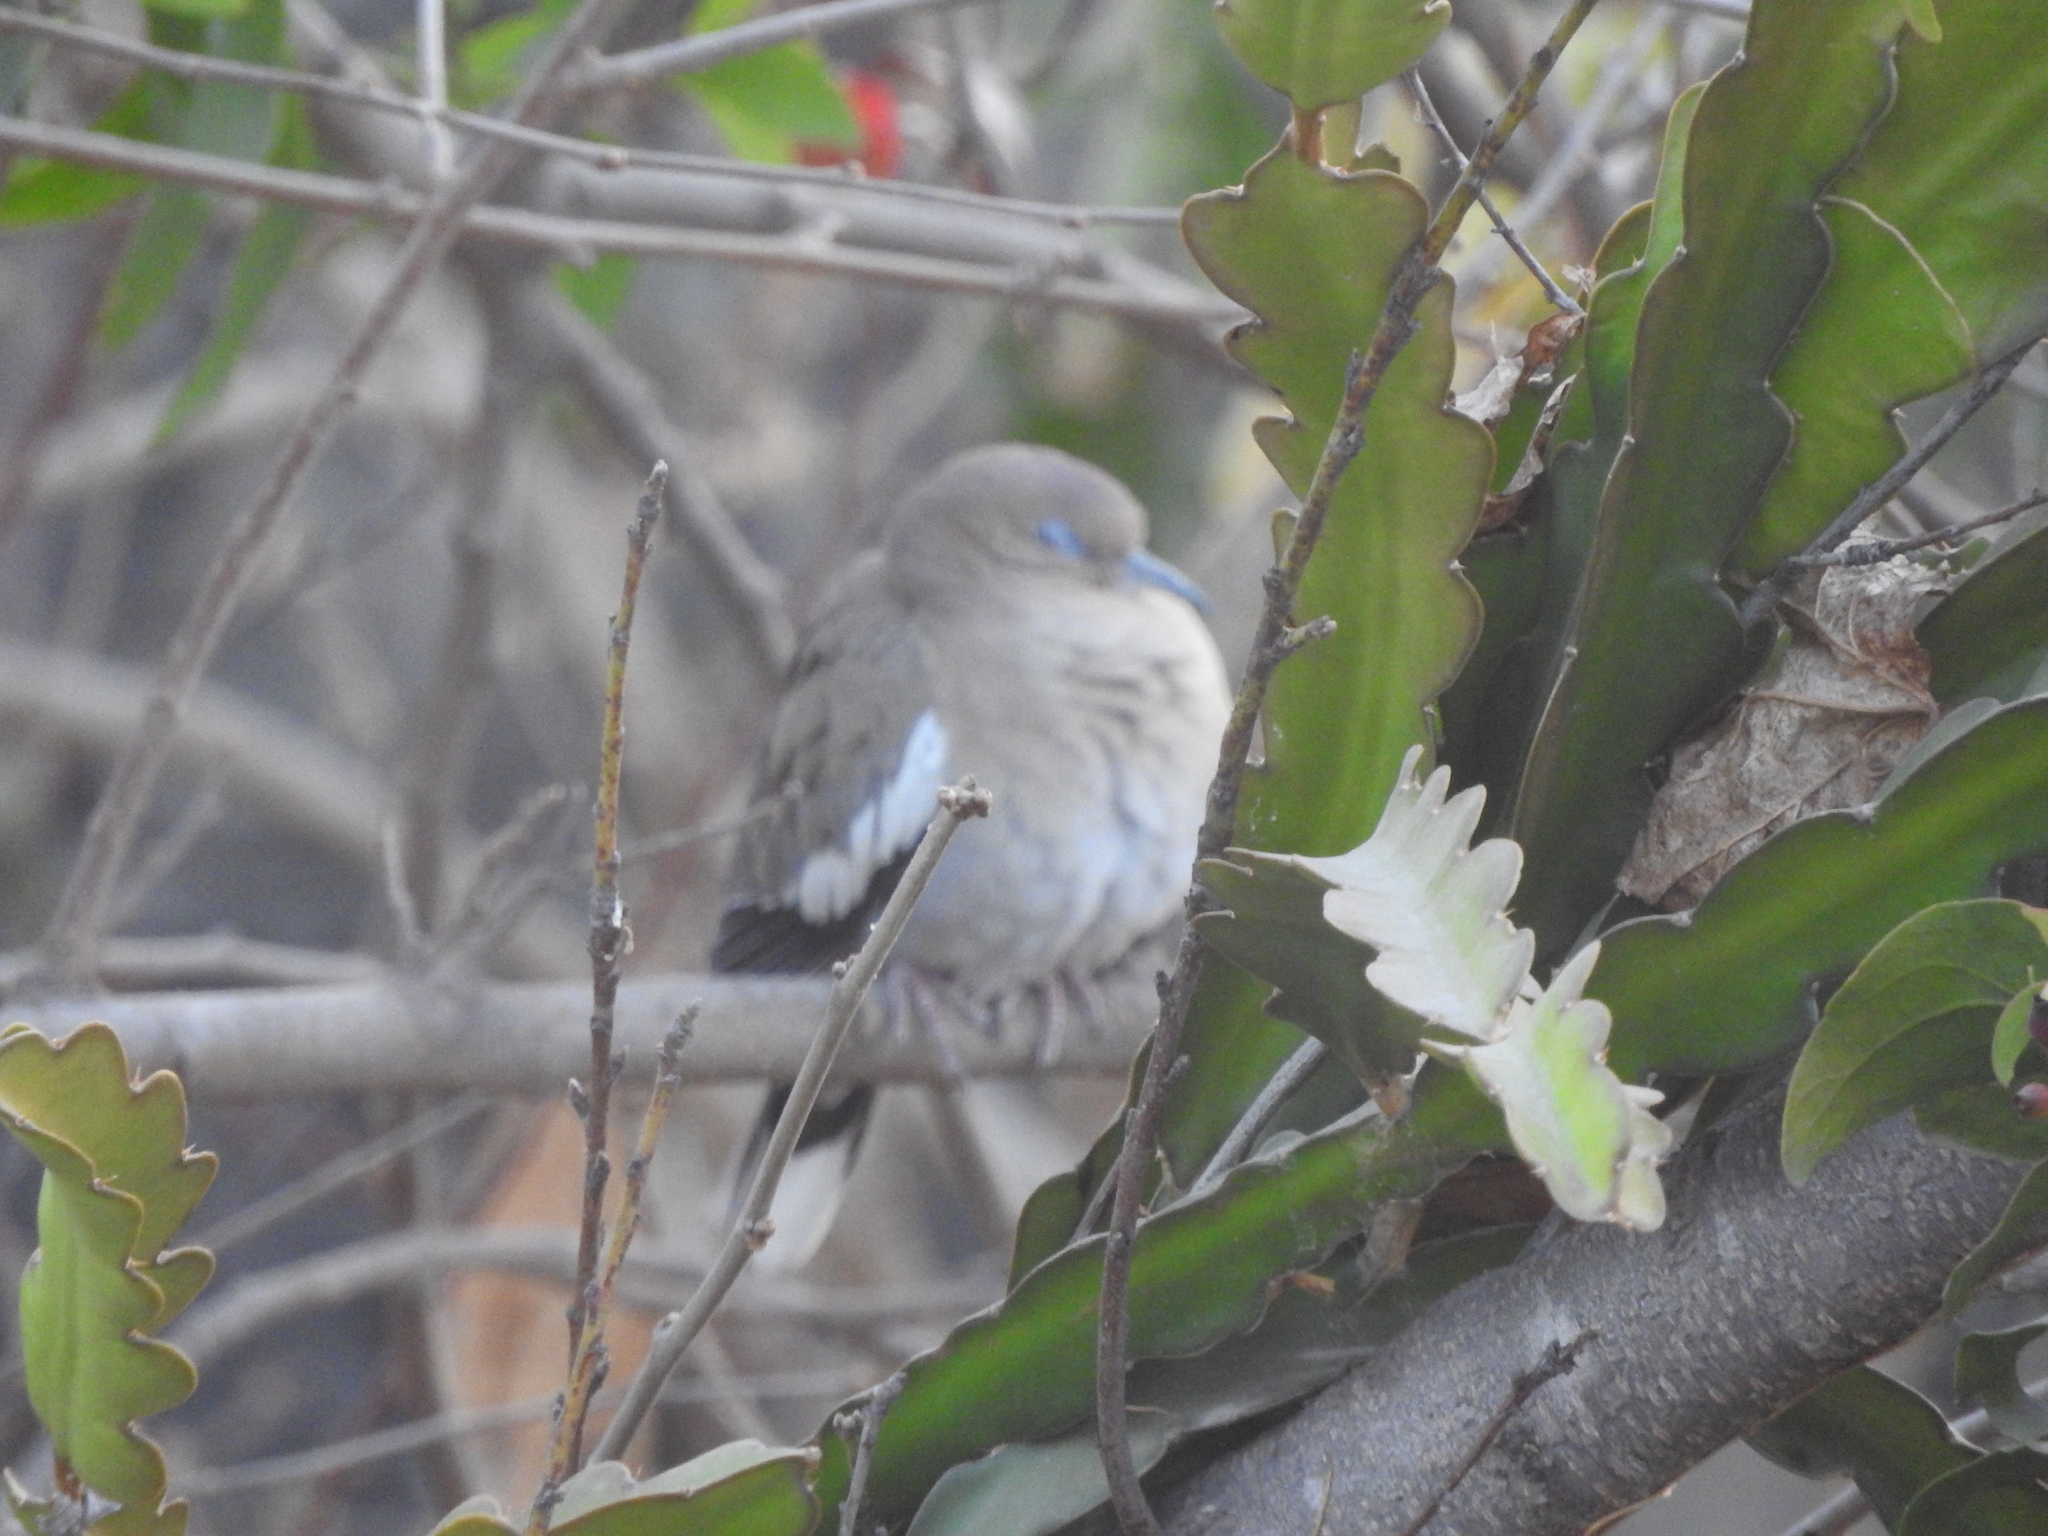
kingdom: Animalia
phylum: Chordata
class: Aves
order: Columbiformes
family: Columbidae
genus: Zenaida
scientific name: Zenaida asiatica
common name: White-winged dove
